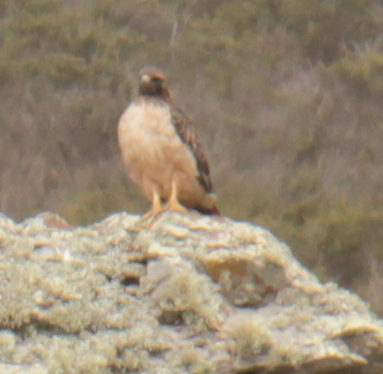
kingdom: Animalia
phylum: Chordata
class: Aves
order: Accipitriformes
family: Accipitridae
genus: Buteo
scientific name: Buteo jamaicensis
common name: Red-tailed hawk
